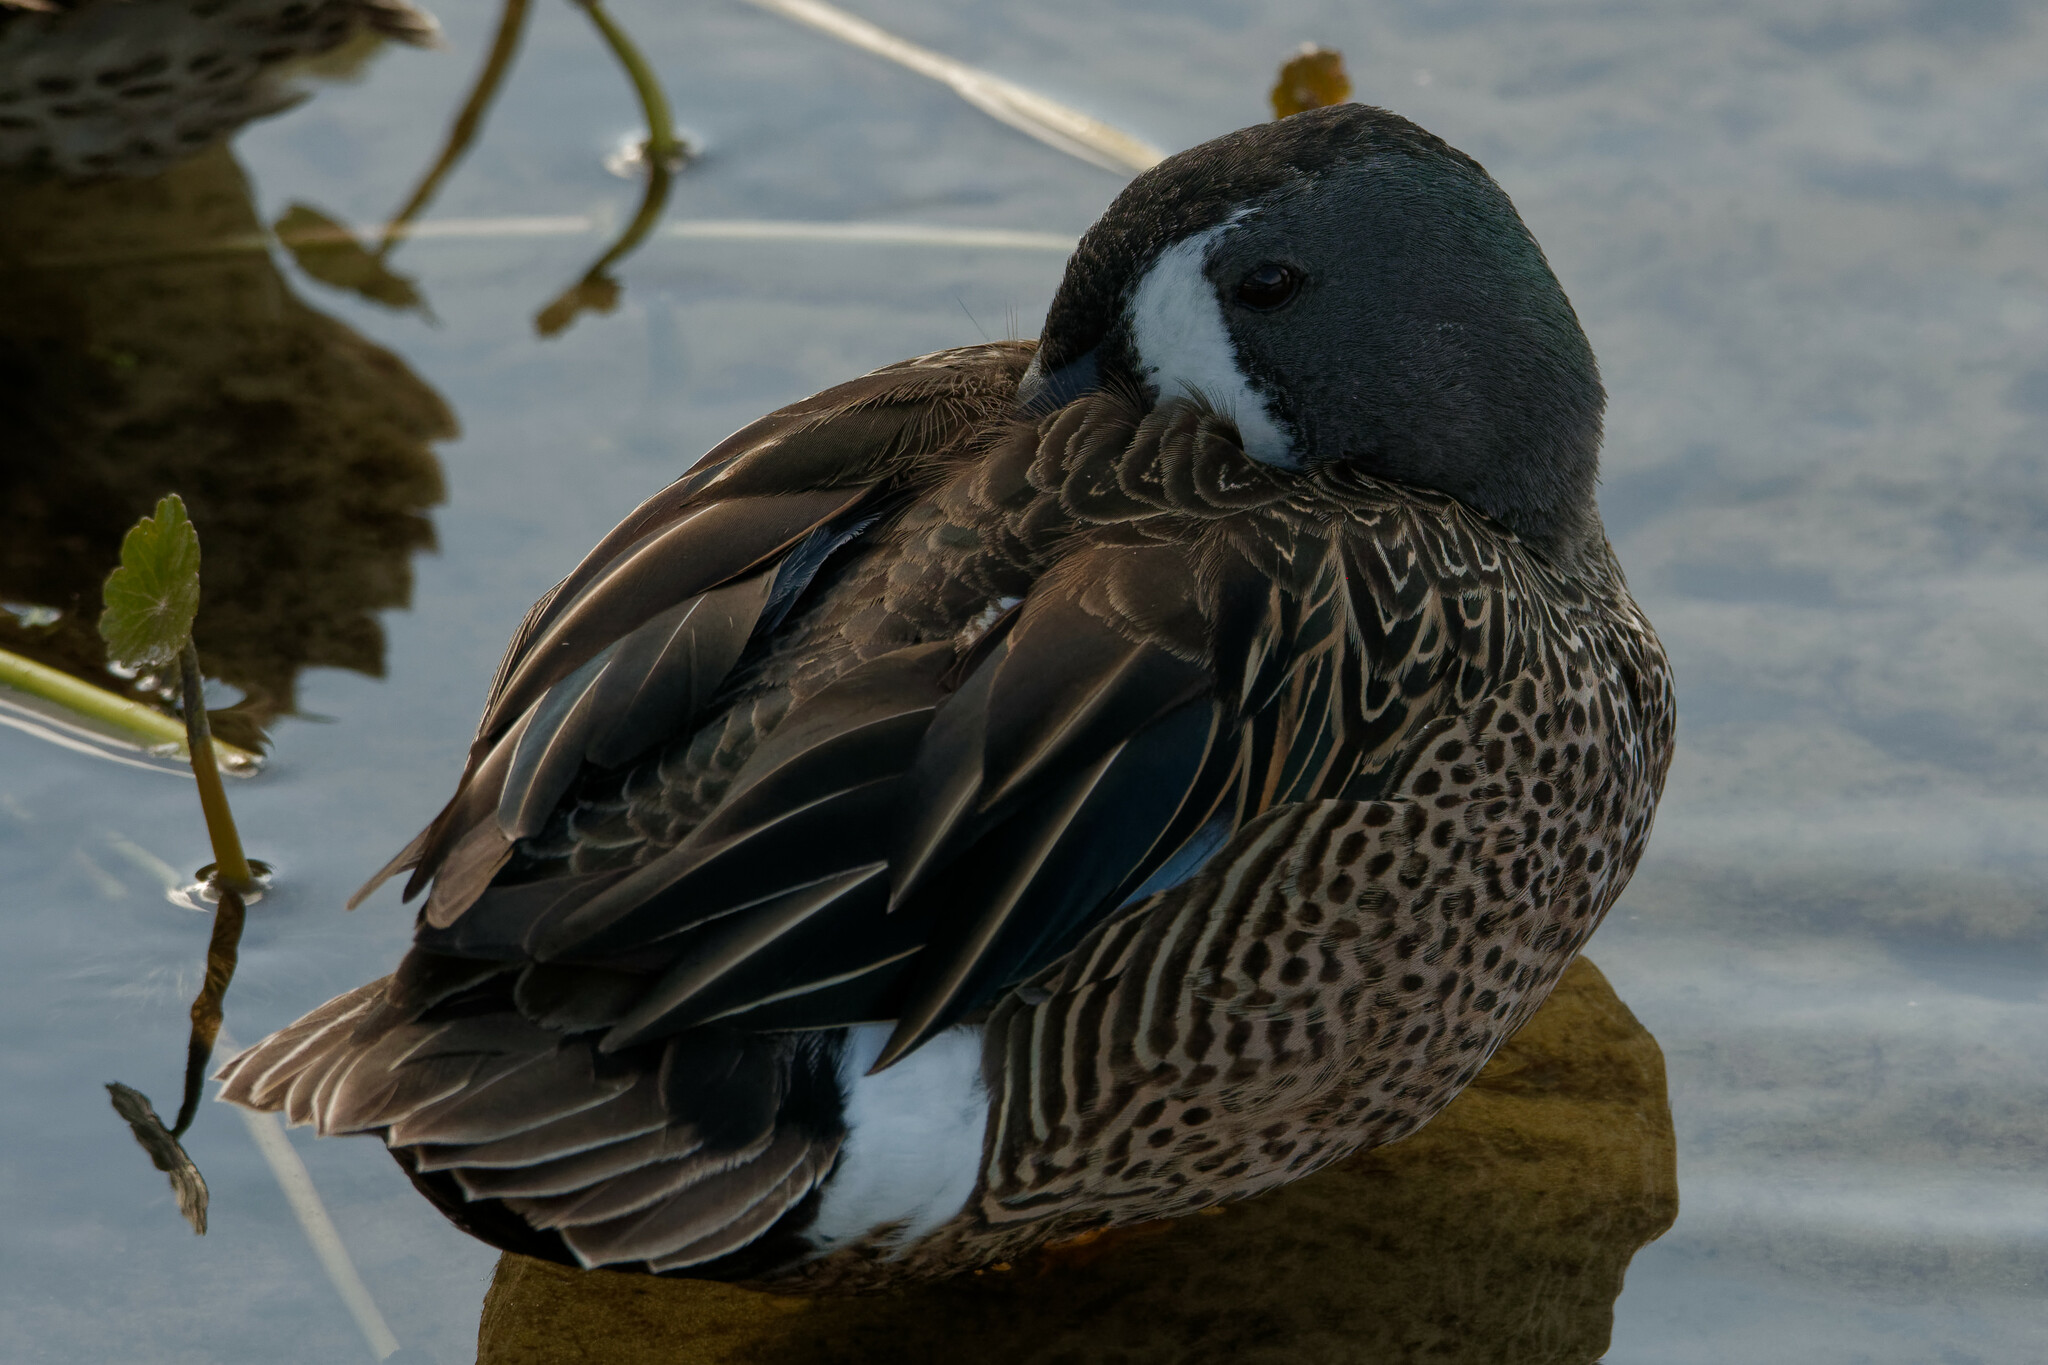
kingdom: Animalia
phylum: Chordata
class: Aves
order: Anseriformes
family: Anatidae
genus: Spatula
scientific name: Spatula discors
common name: Blue-winged teal
